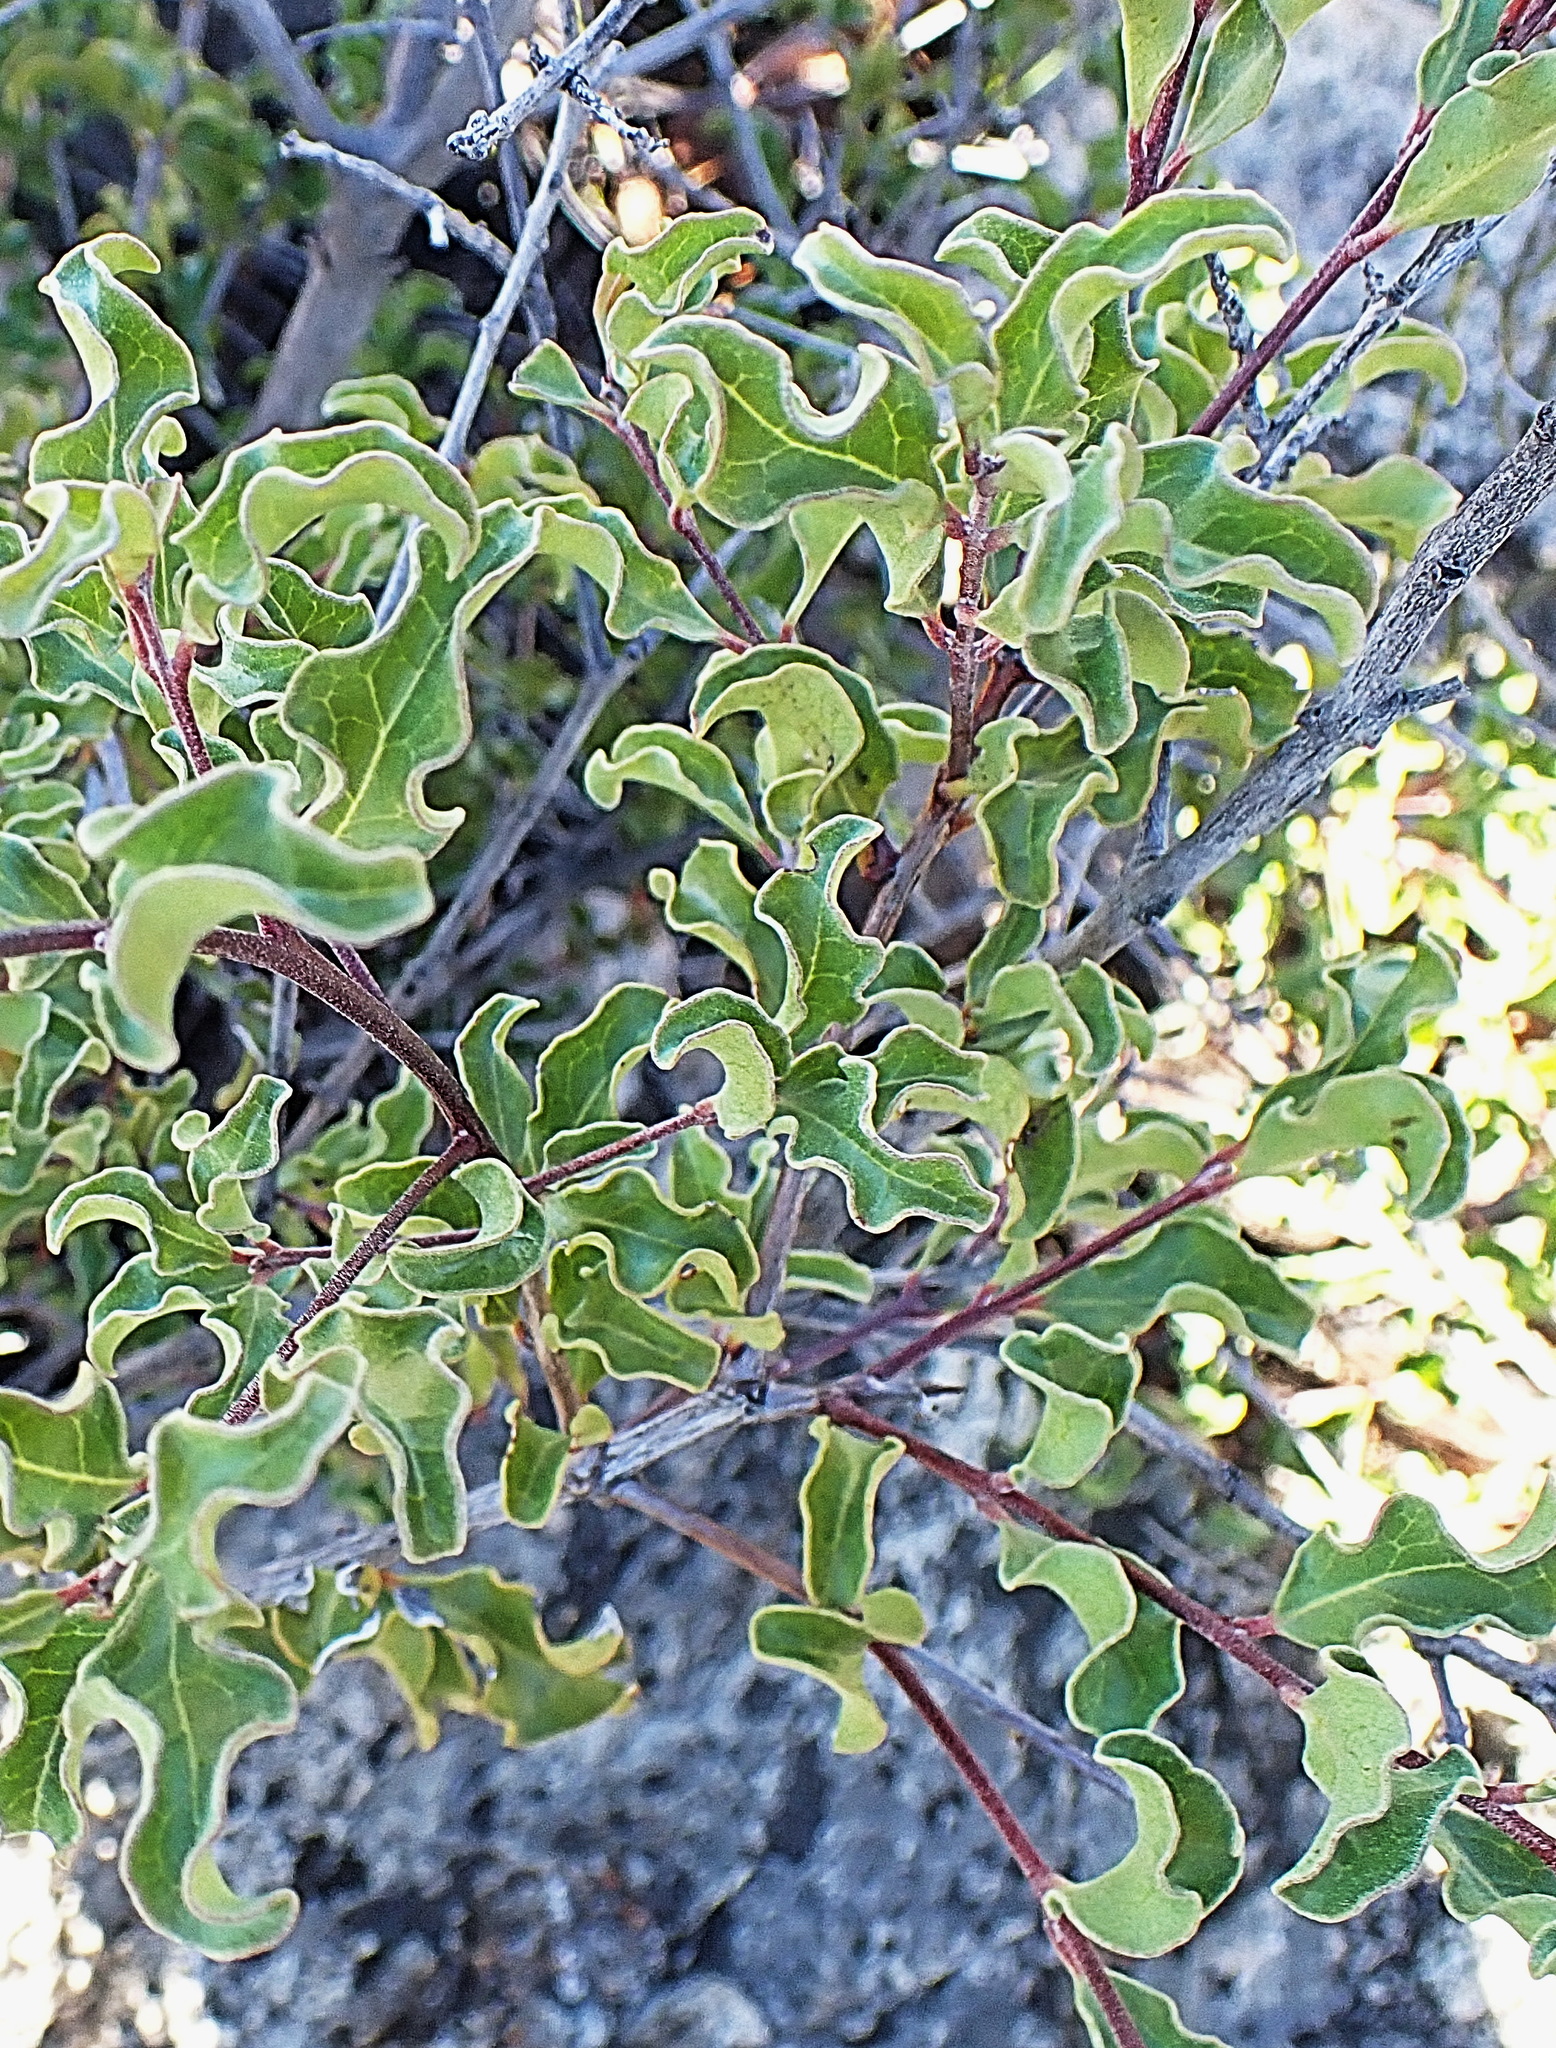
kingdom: Plantae
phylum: Tracheophyta
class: Magnoliopsida
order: Ericales
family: Ebenaceae
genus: Euclea
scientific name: Euclea undulata
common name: Small-leaved guarri
